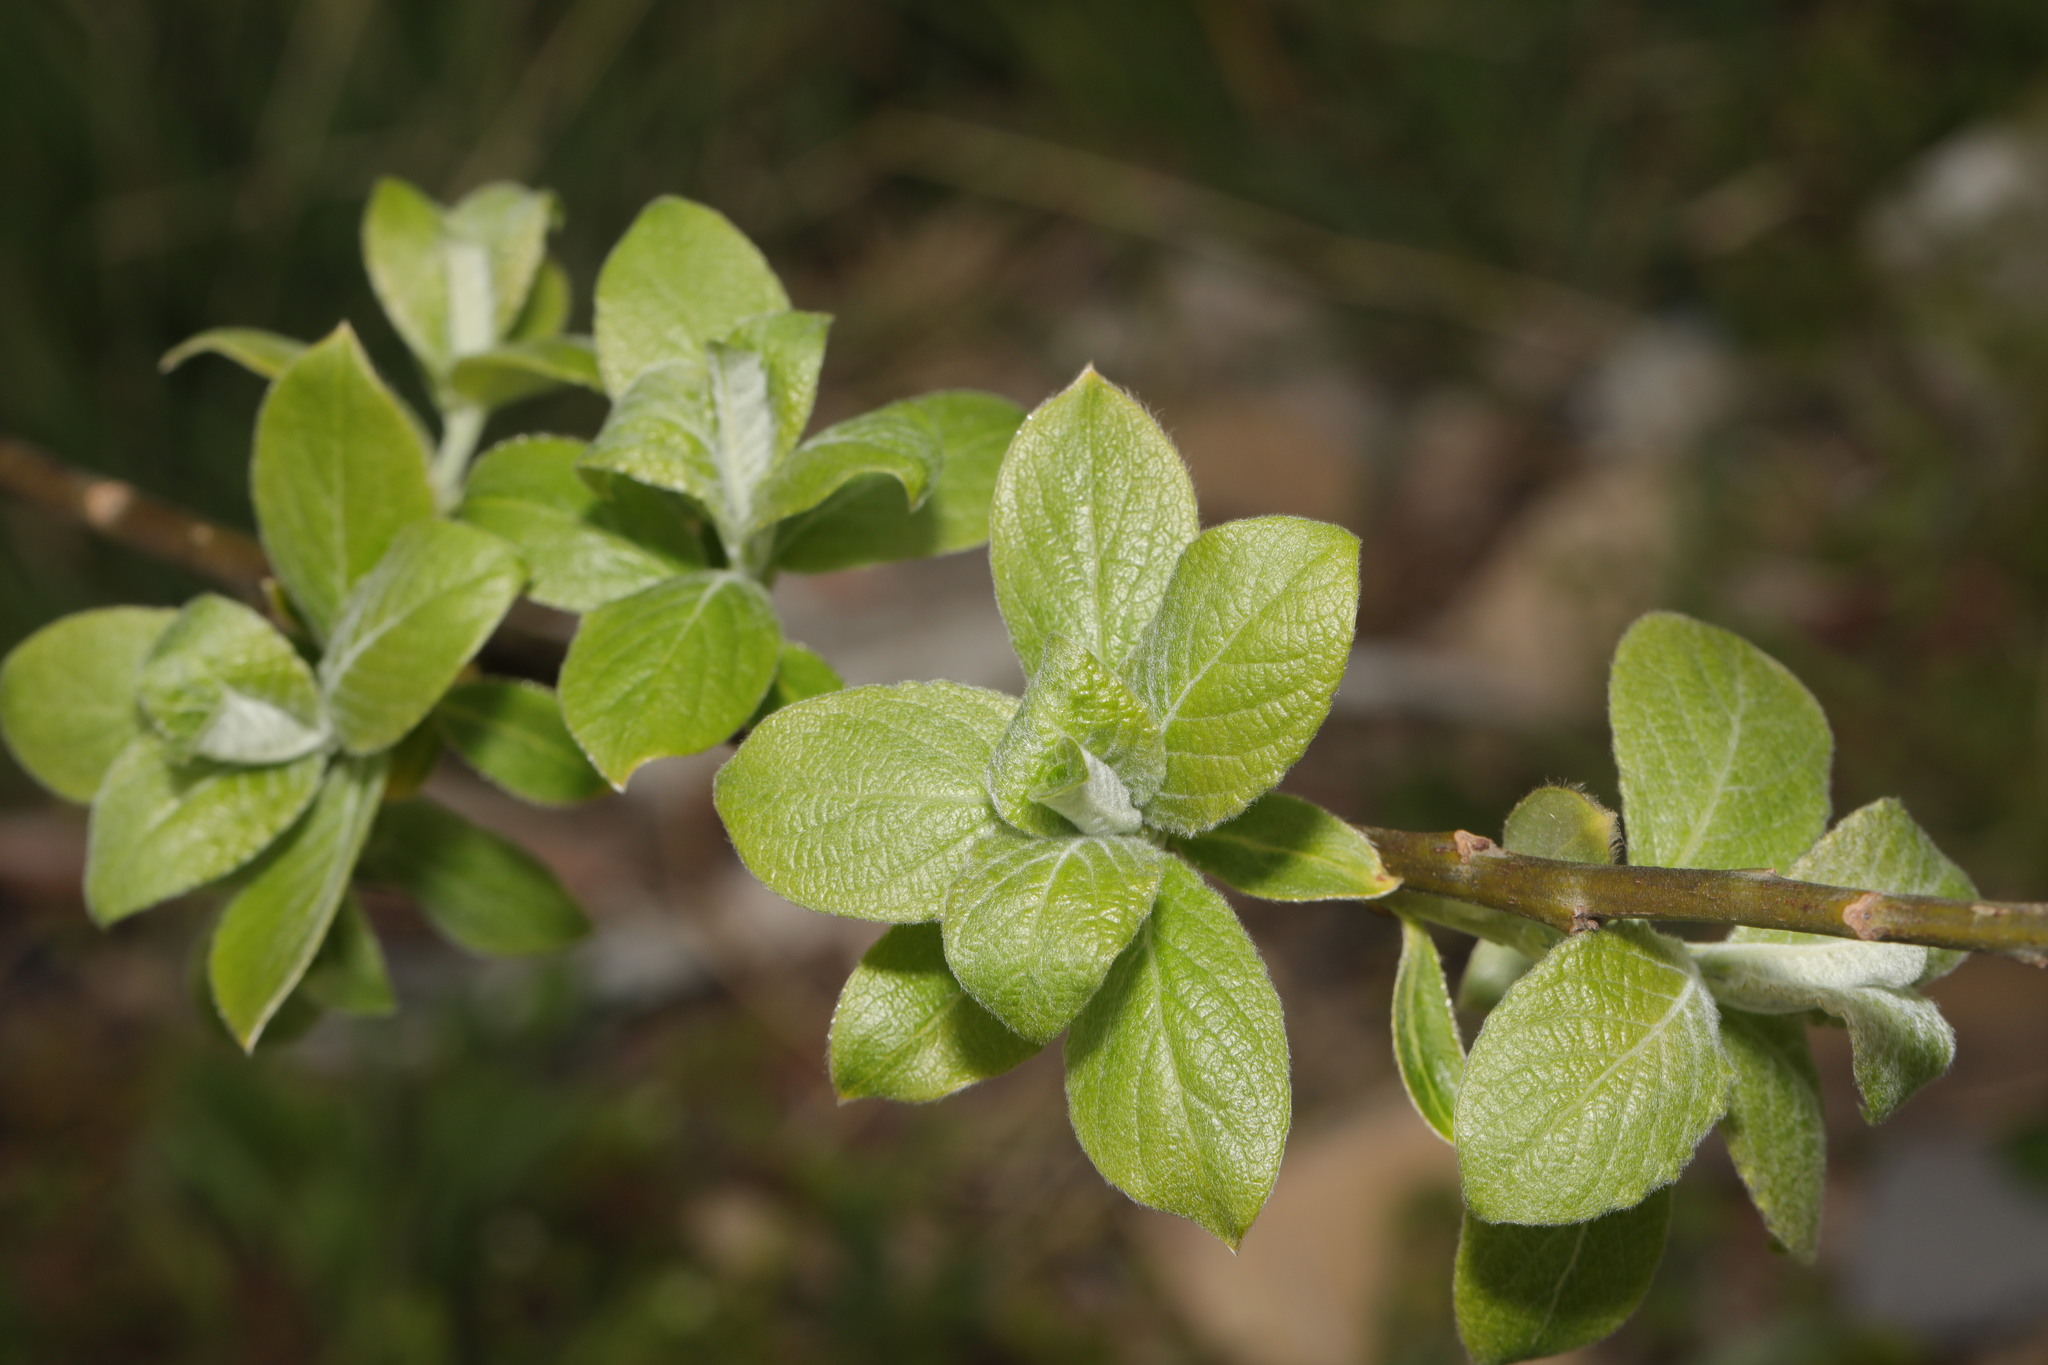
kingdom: Plantae
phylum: Tracheophyta
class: Magnoliopsida
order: Malpighiales
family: Salicaceae
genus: Salix
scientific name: Salix caprea
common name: Goat willow
